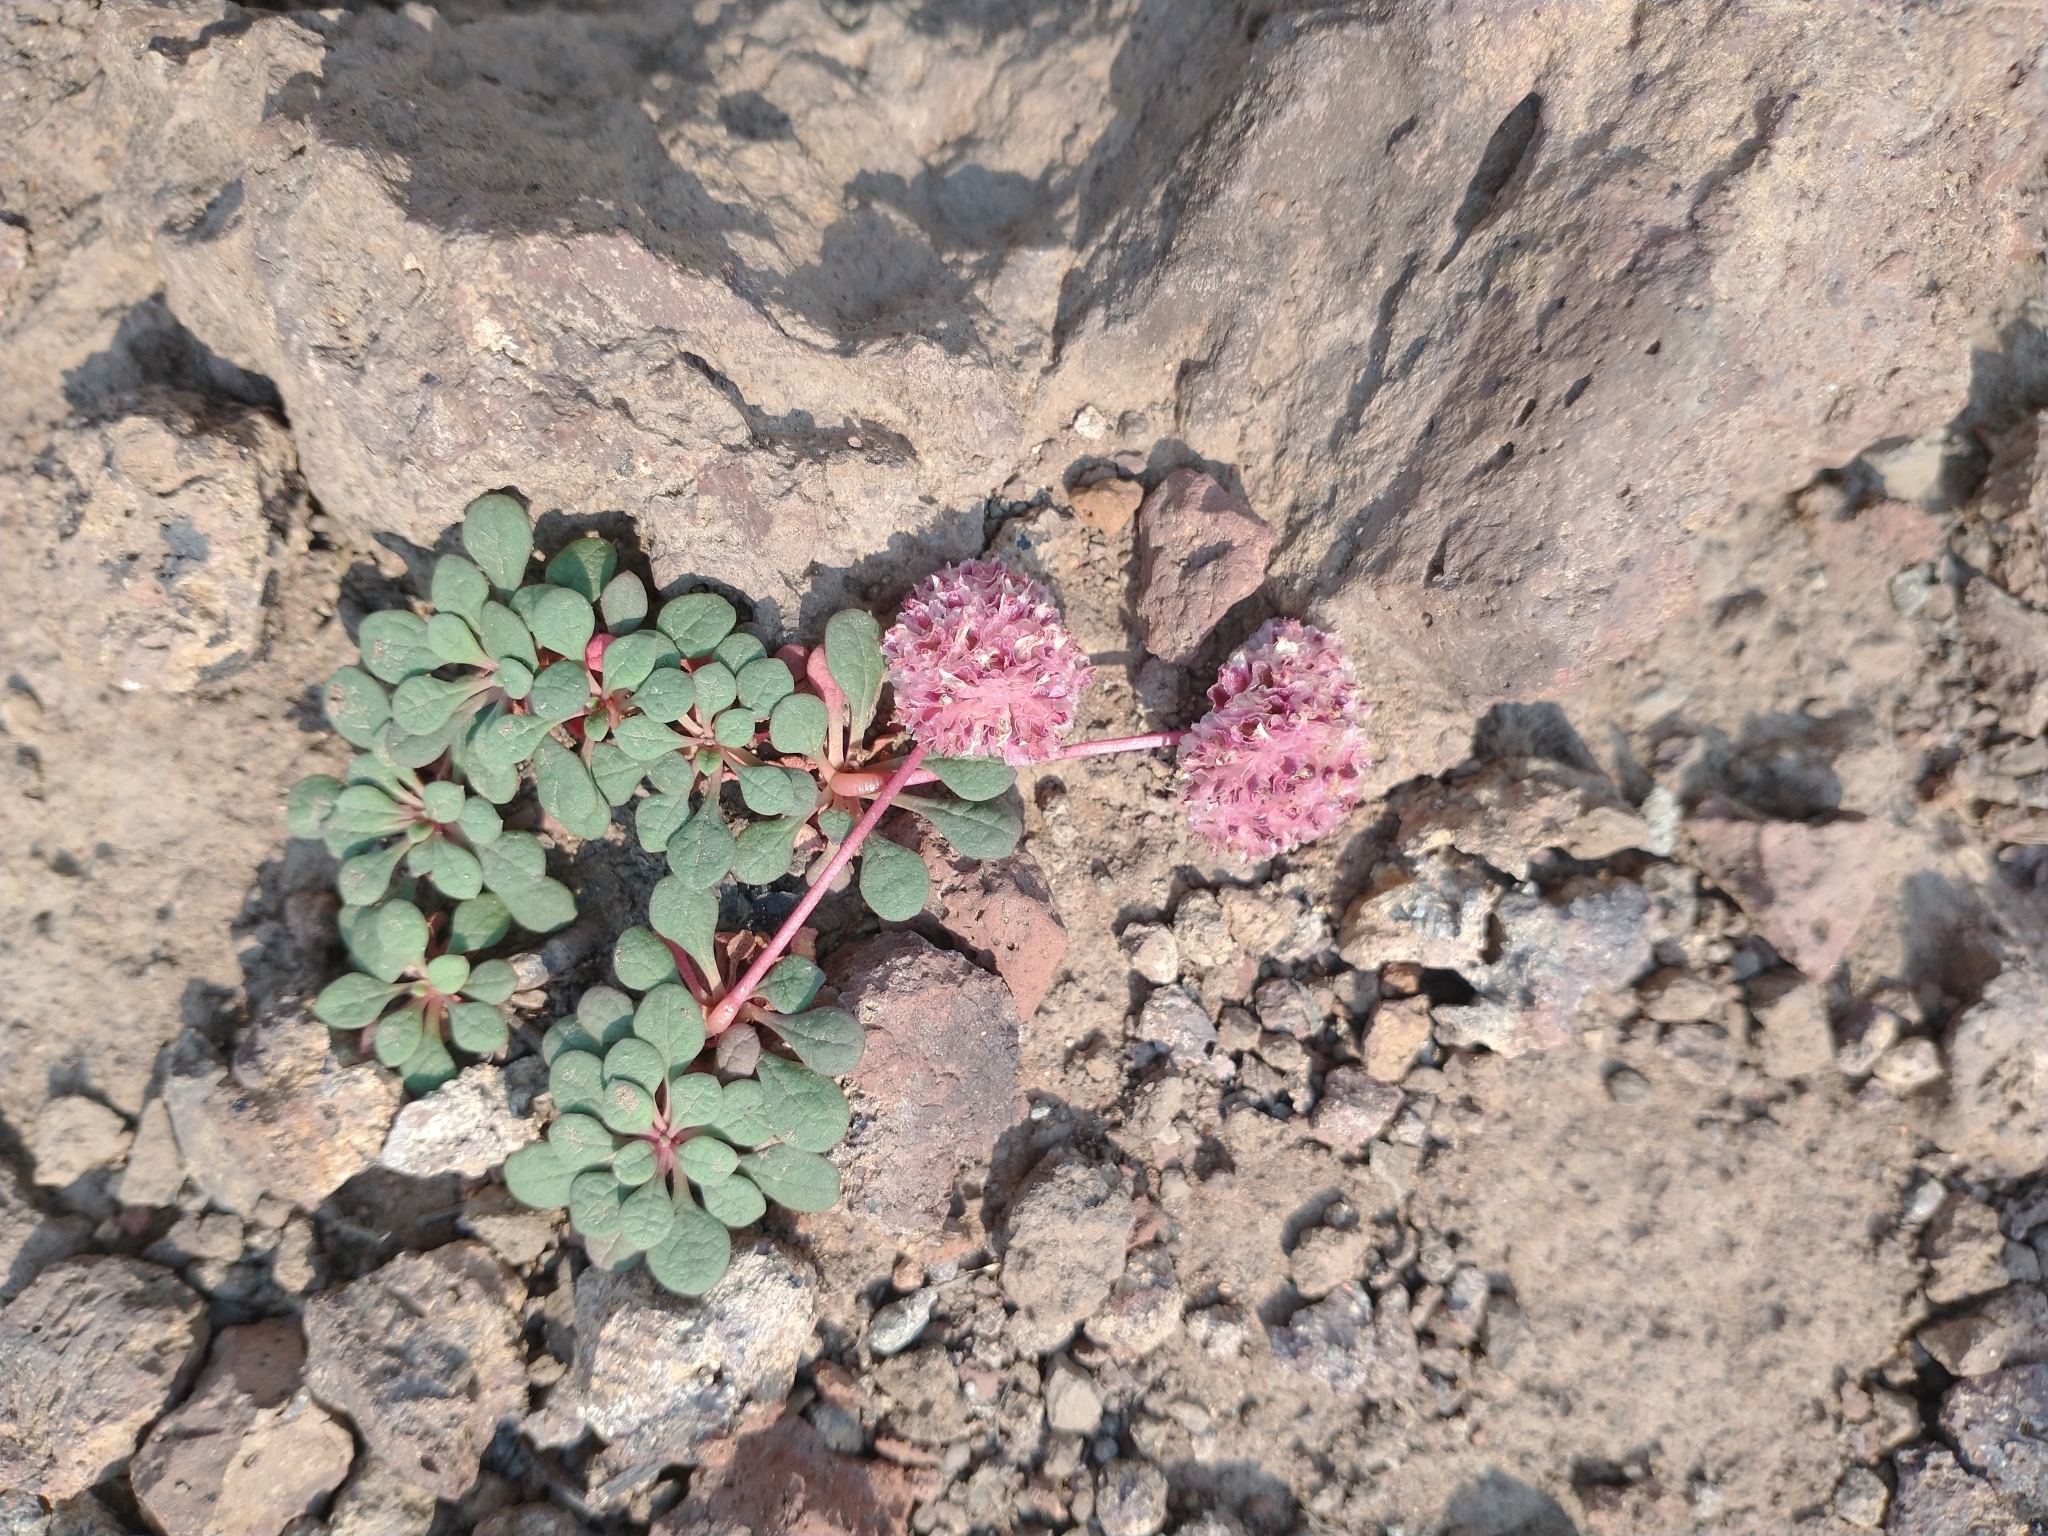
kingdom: Plantae
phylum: Tracheophyta
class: Magnoliopsida
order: Caryophyllales
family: Montiaceae
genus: Calyptridium
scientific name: Calyptridium umbellatum
